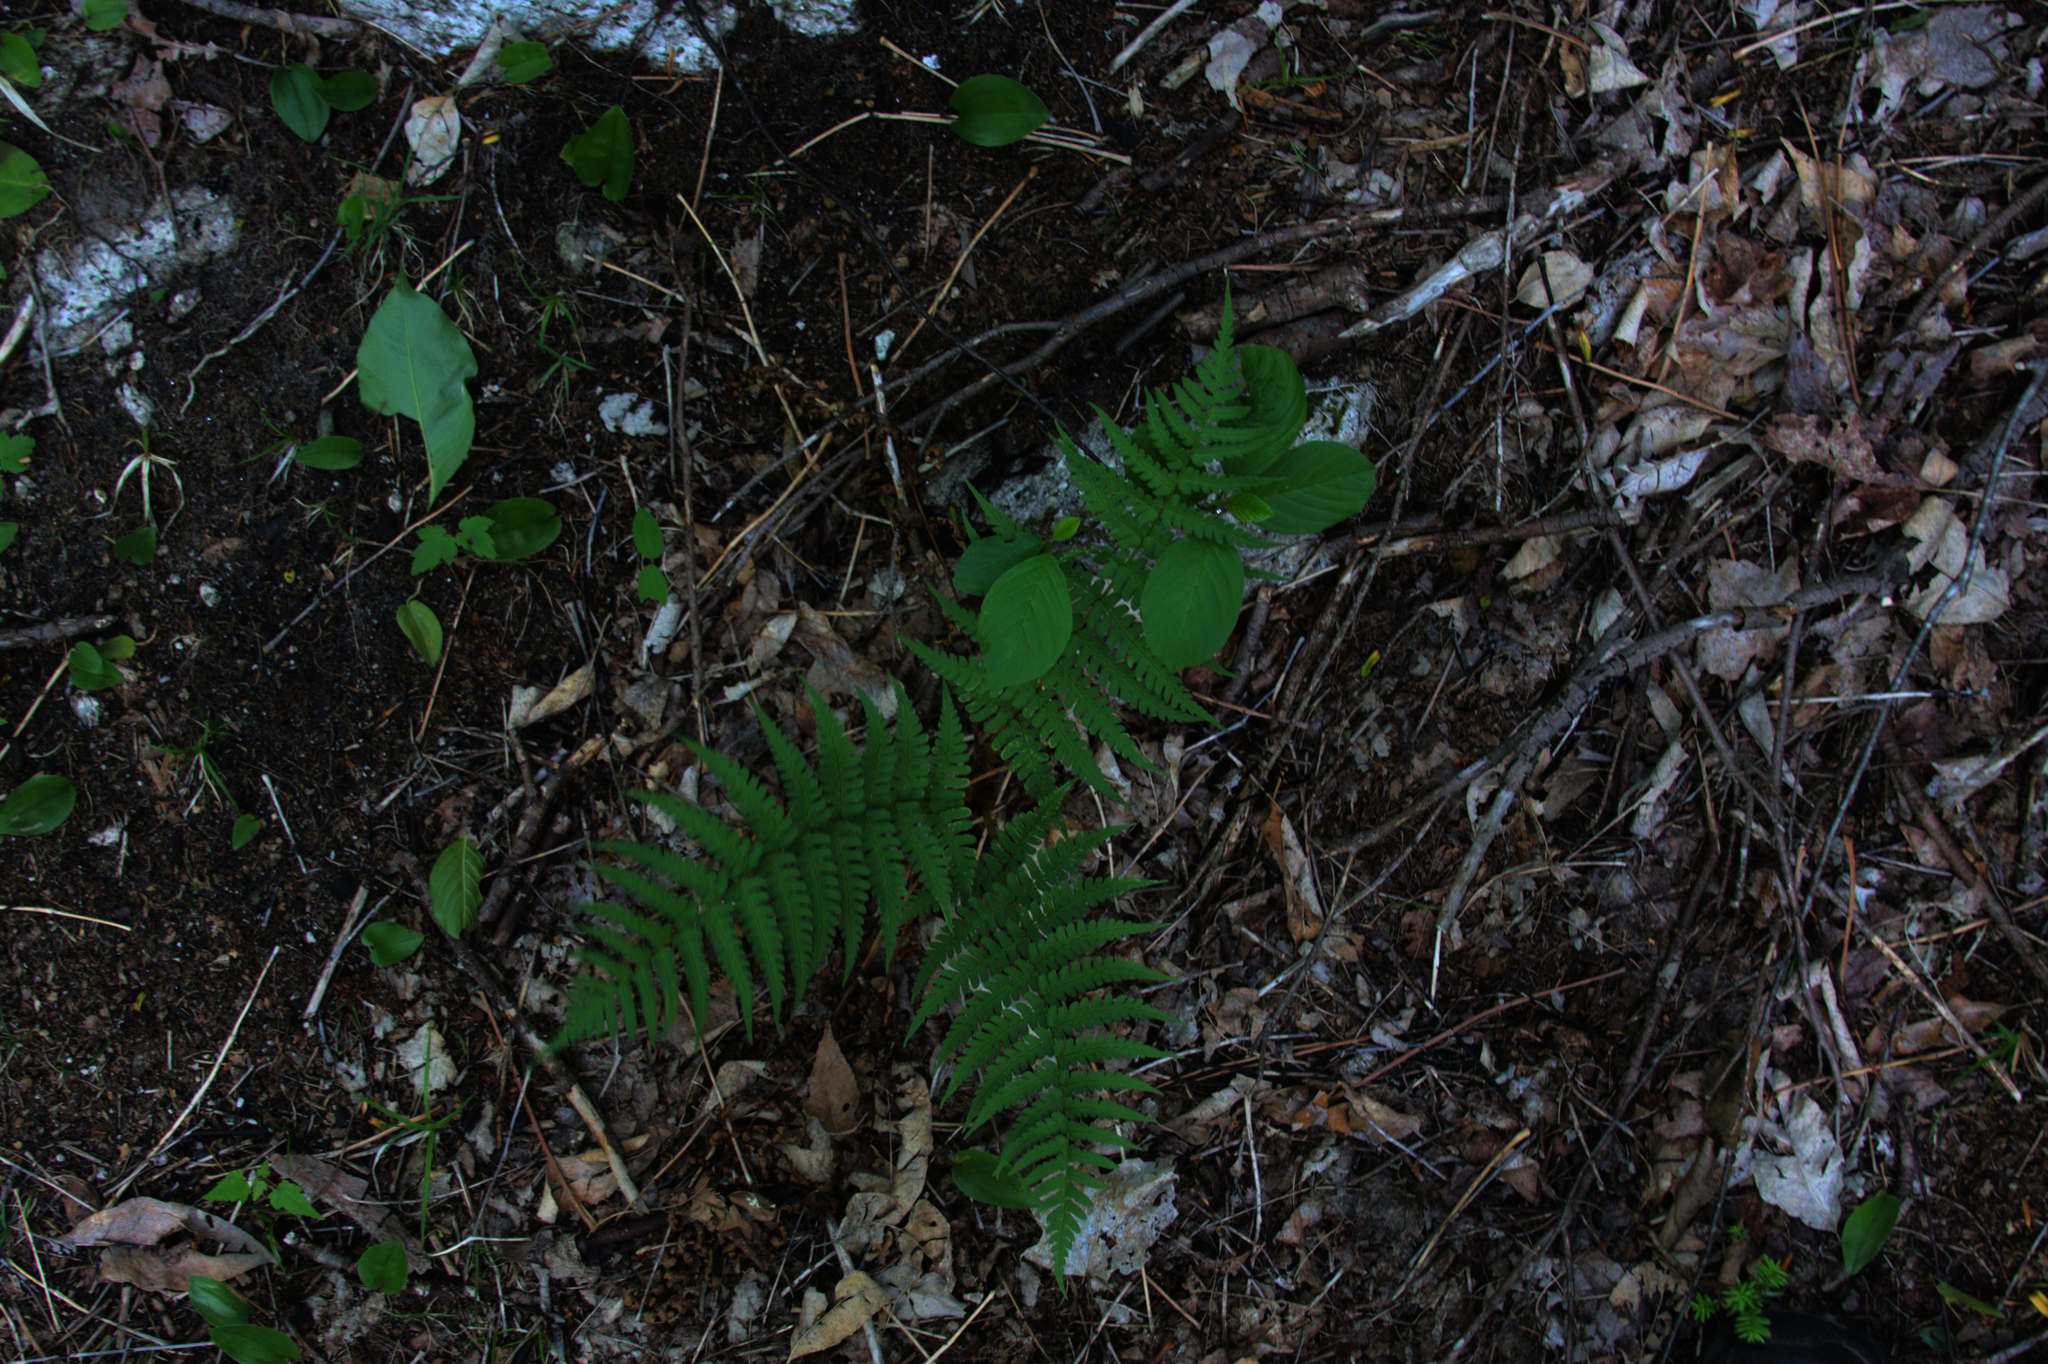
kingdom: Plantae
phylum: Tracheophyta
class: Liliopsida
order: Asparagales
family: Asparagaceae
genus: Maianthemum
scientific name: Maianthemum canadense
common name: False lily-of-the-valley
